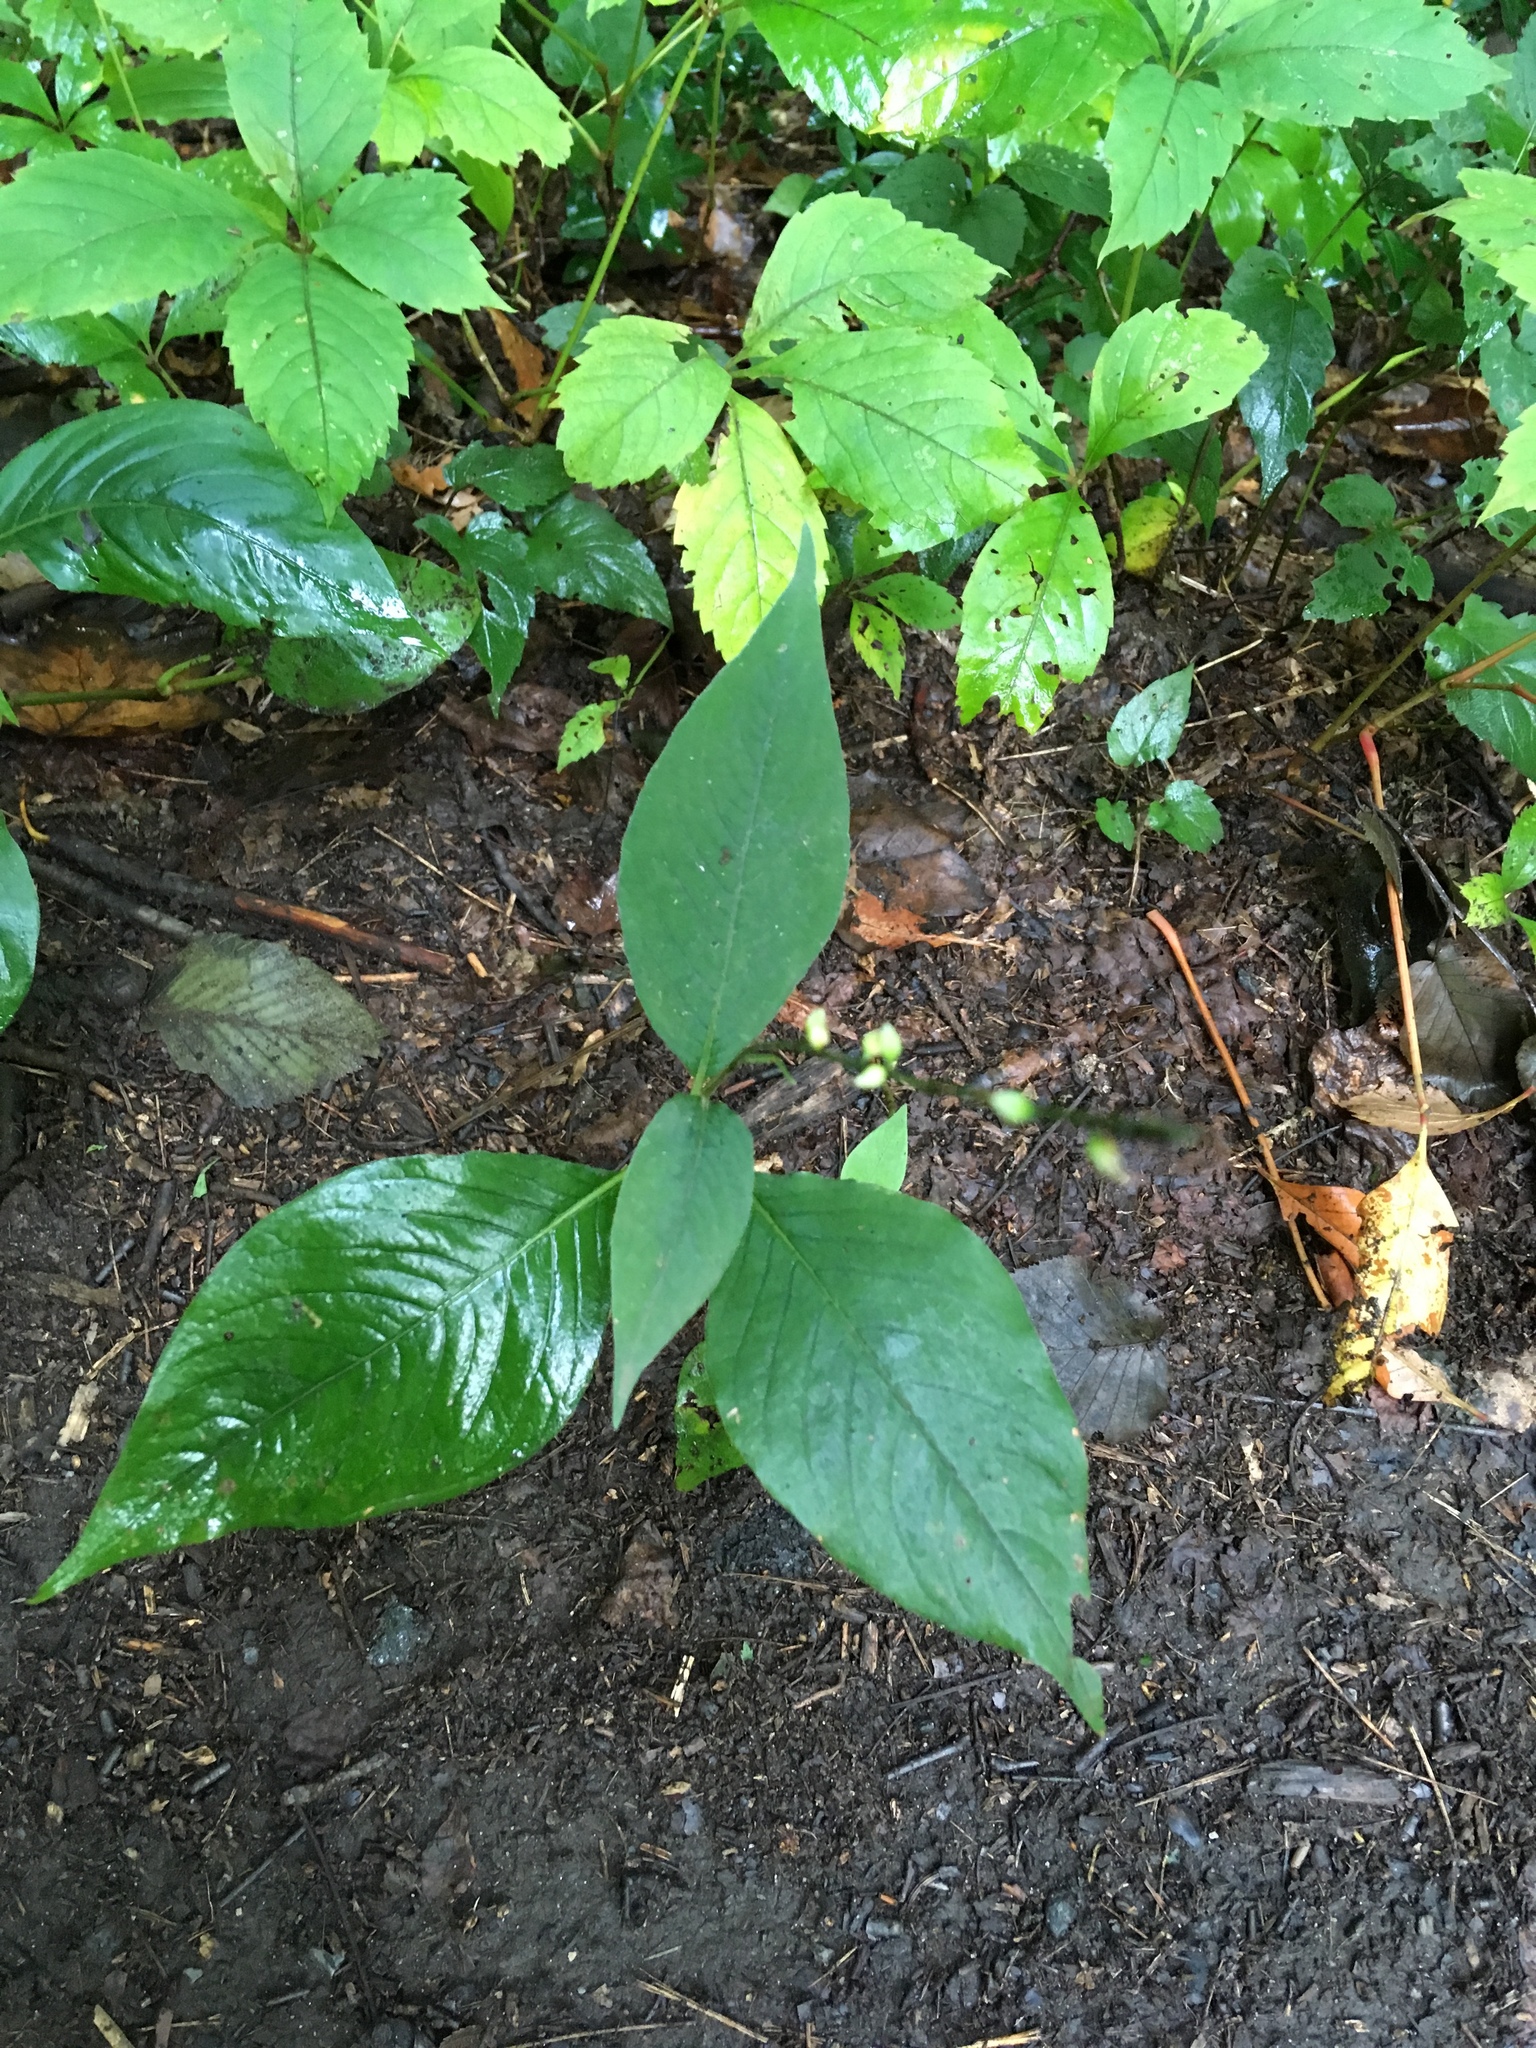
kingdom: Plantae
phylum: Tracheophyta
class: Magnoliopsida
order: Caryophyllales
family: Polygonaceae
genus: Persicaria
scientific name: Persicaria virginiana
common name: Jumpseed
